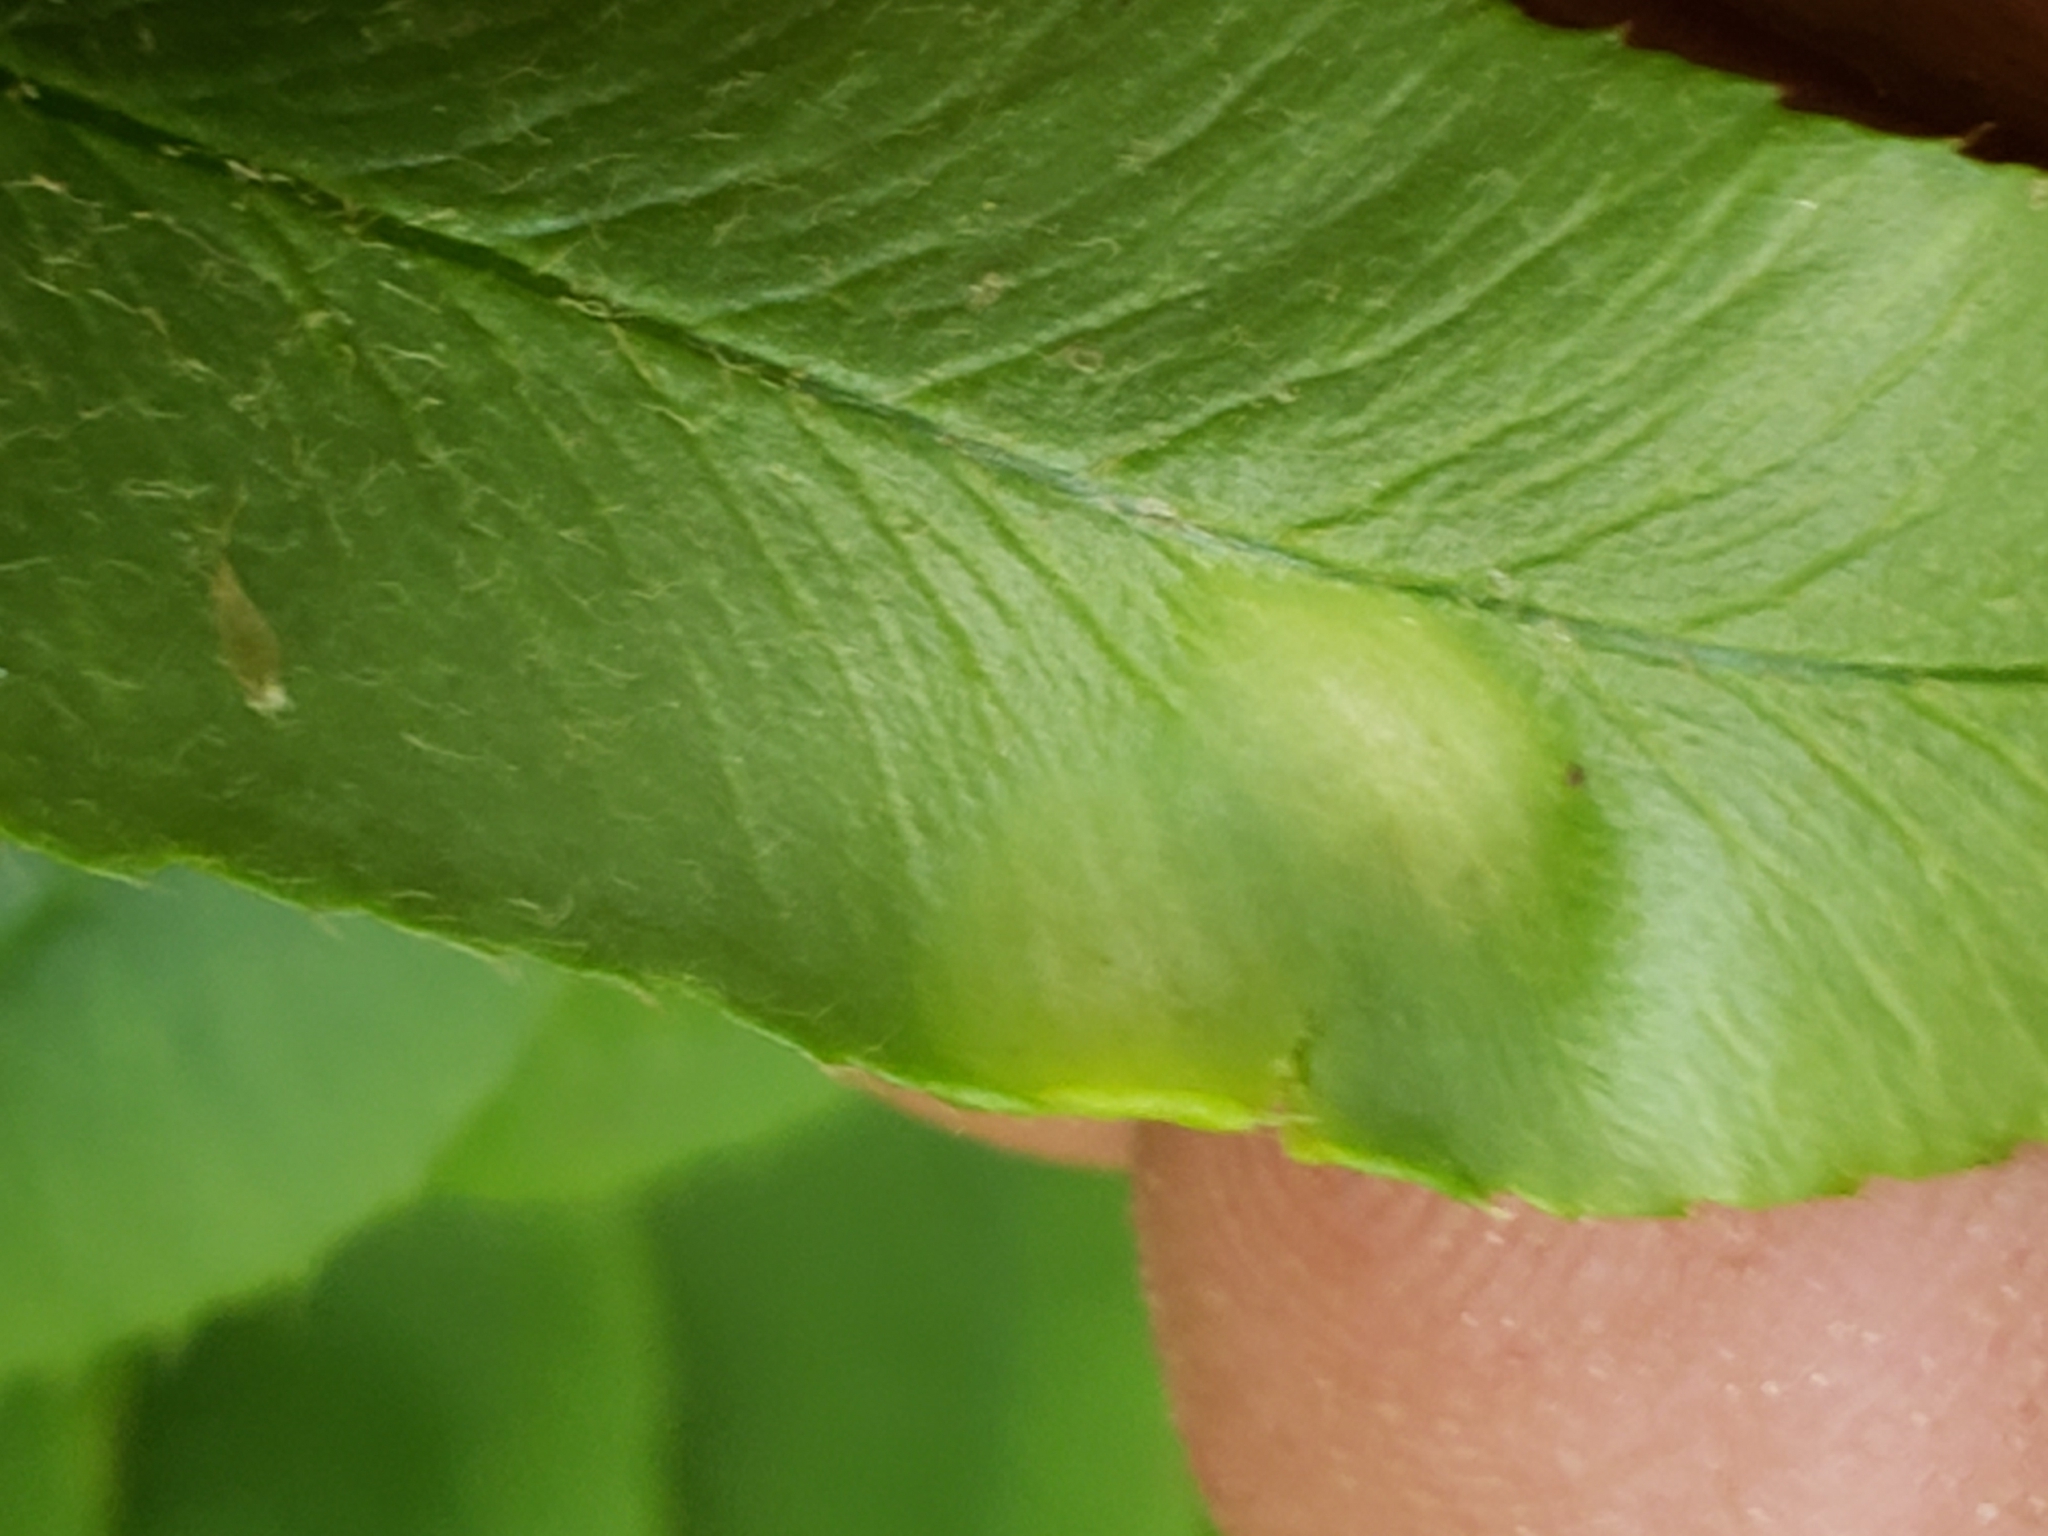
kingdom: Fungi
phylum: Ascomycota
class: Taphrinomycetes
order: Taphrinales
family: Taphrinaceae
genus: Taphrina
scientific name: Taphrina polystichi
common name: Christmas fern leaf curl
